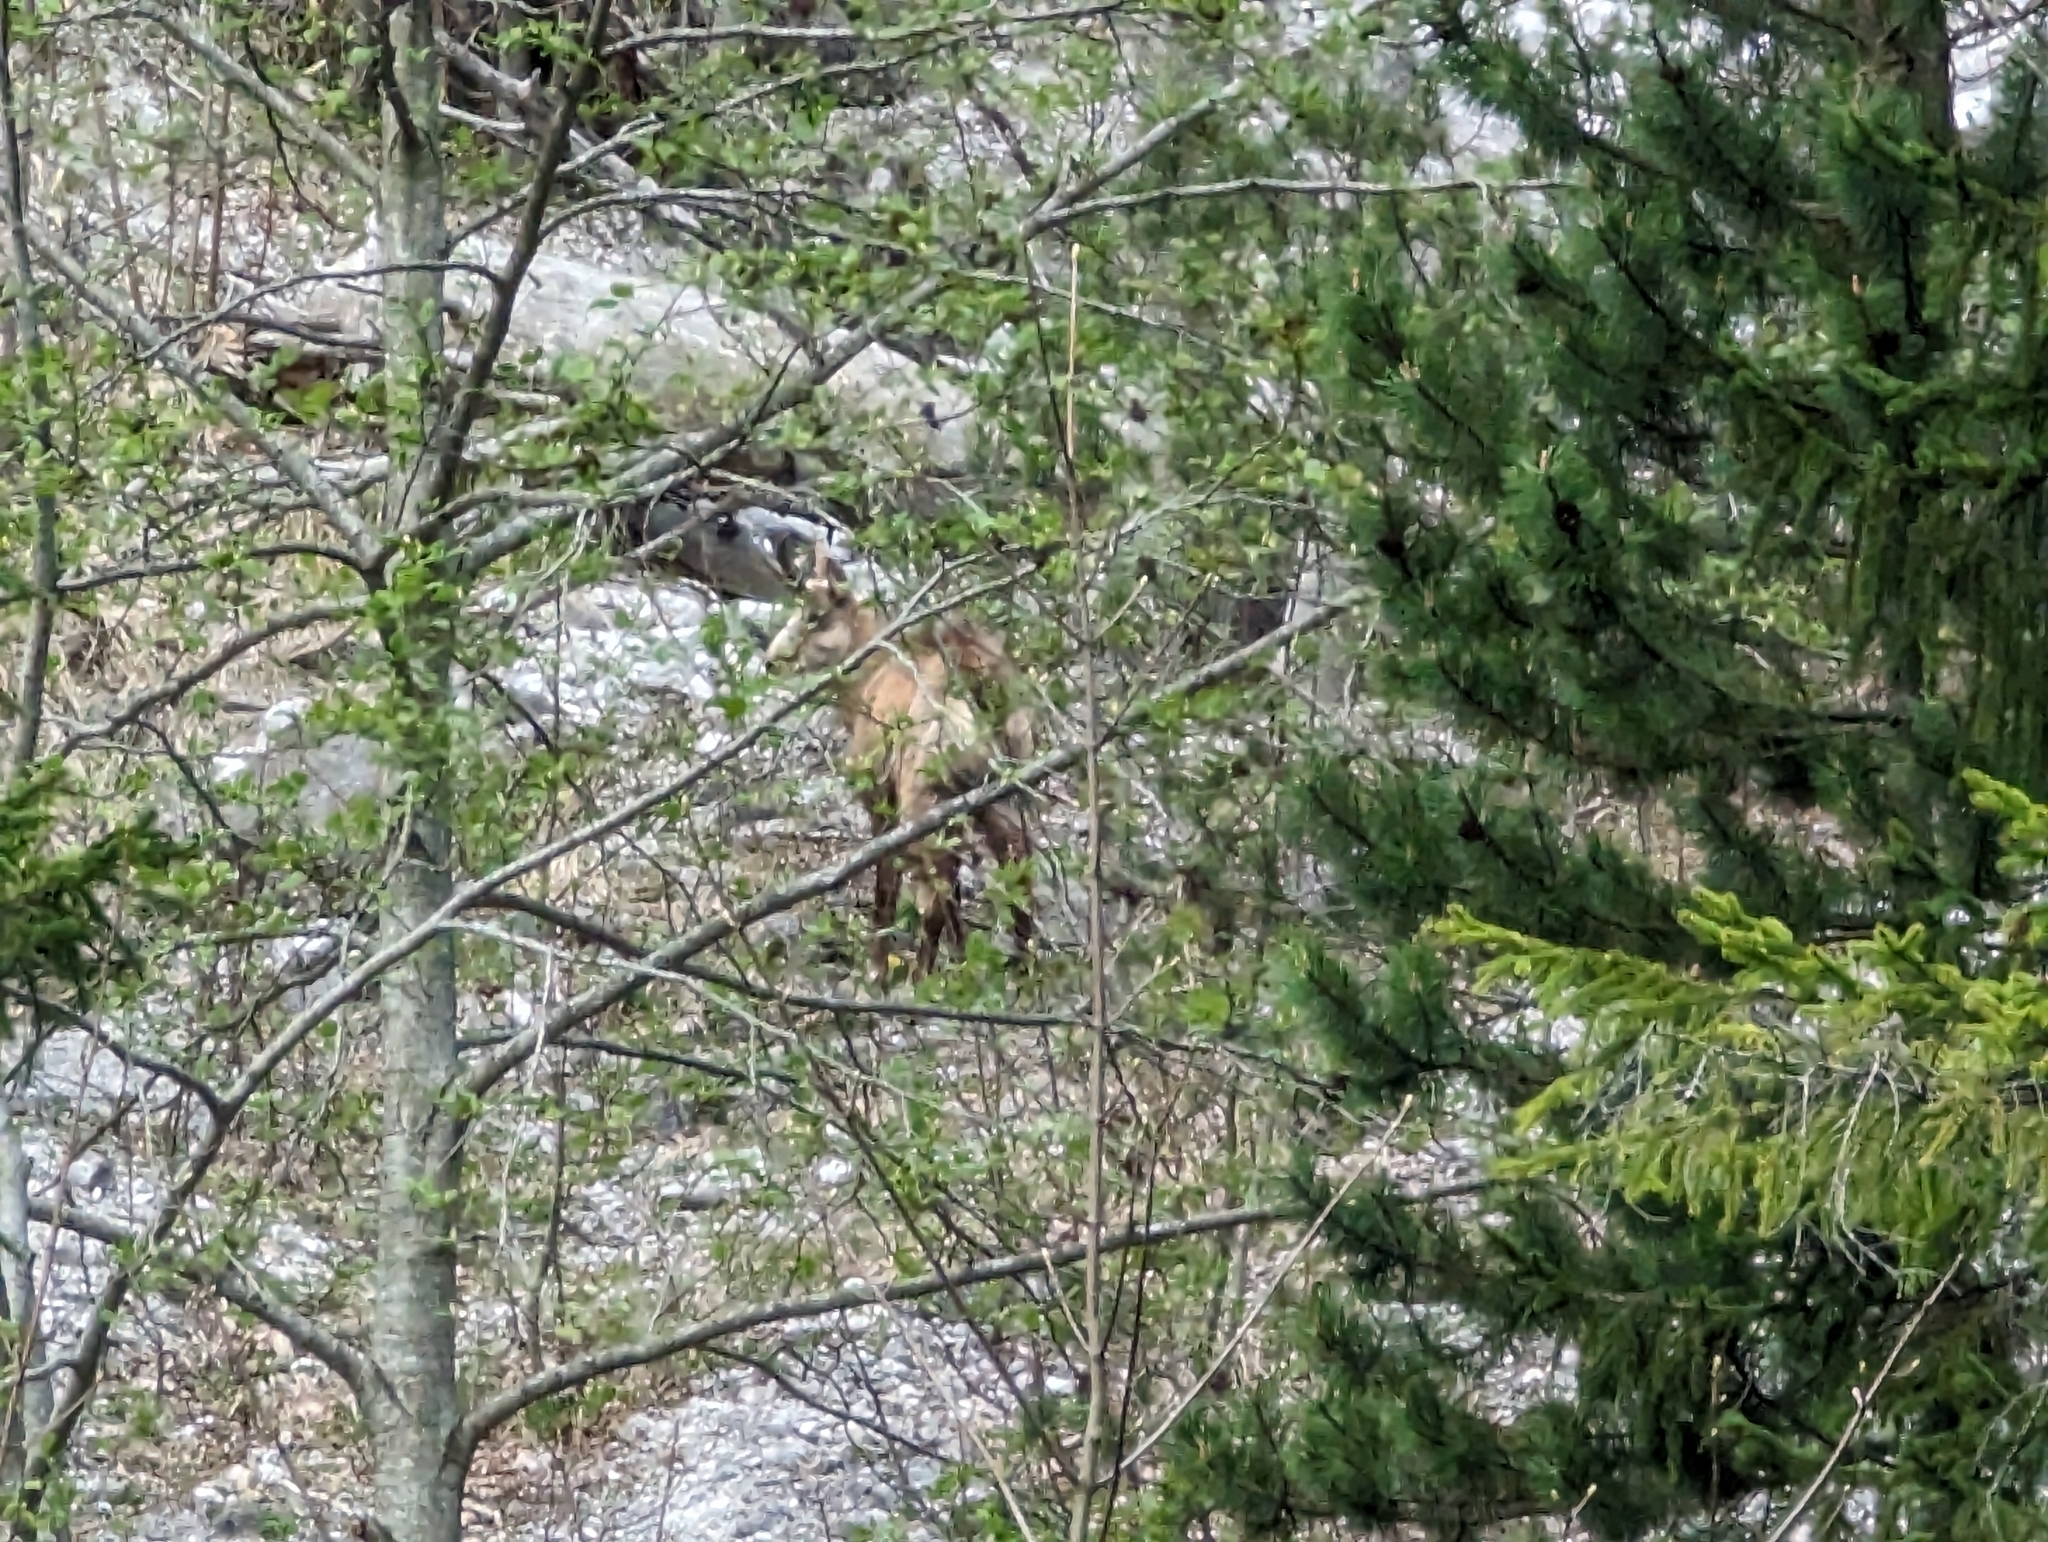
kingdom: Animalia
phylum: Chordata
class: Mammalia
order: Artiodactyla
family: Bovidae
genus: Rupicapra
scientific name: Rupicapra rupicapra
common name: Chamois
